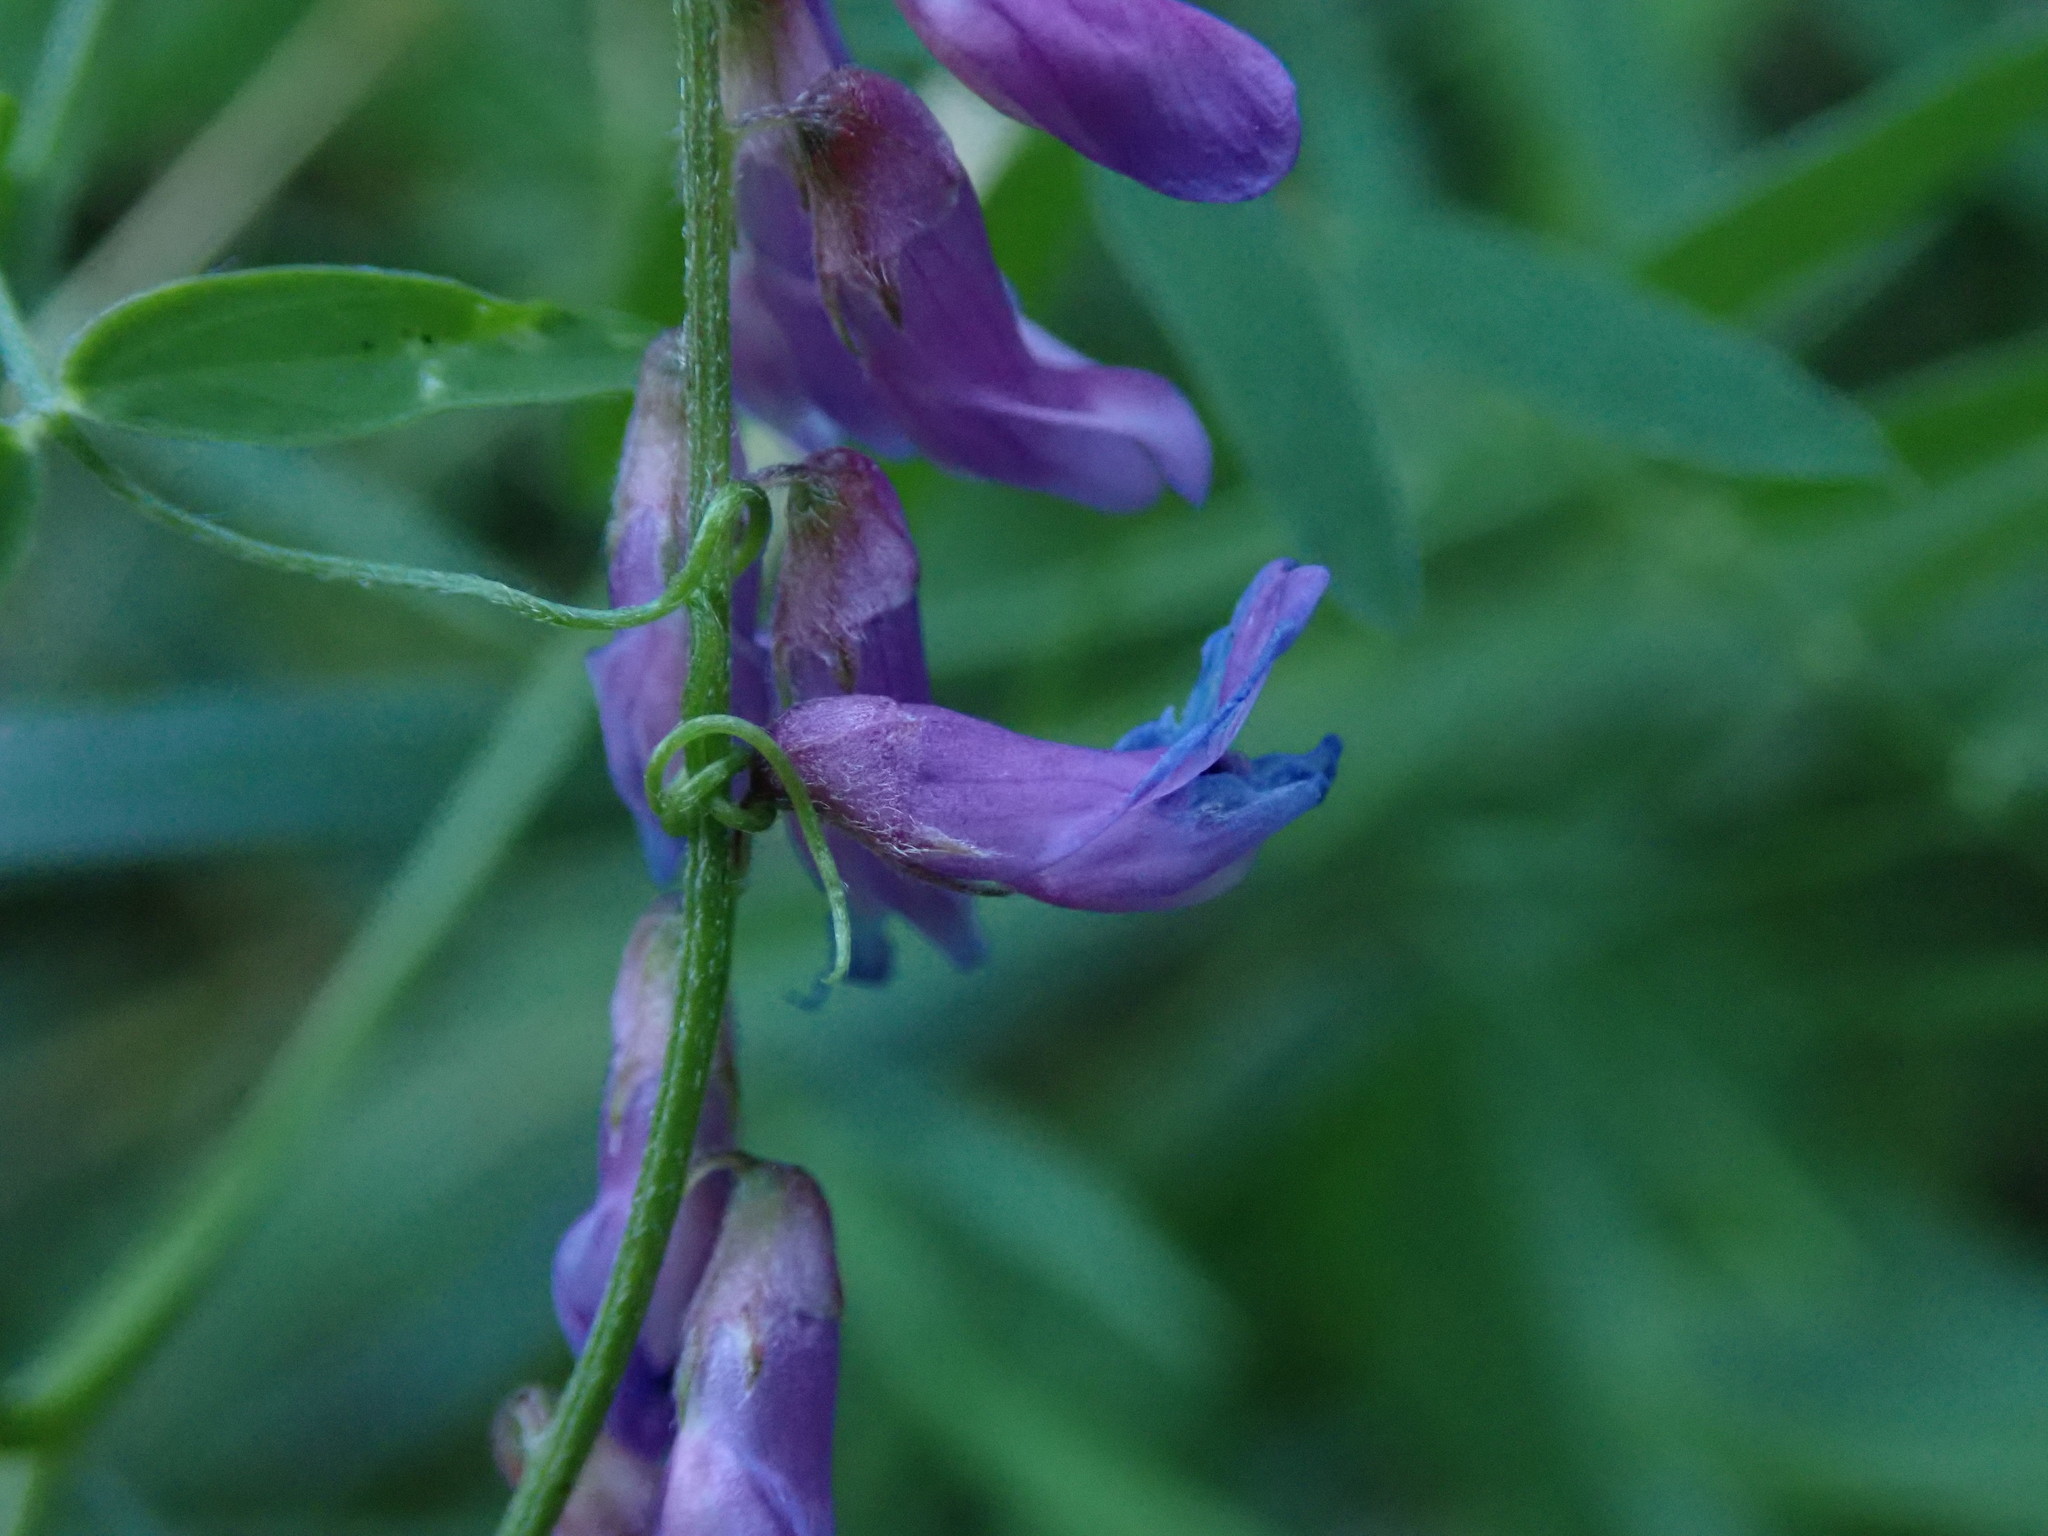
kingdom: Plantae
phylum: Tracheophyta
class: Magnoliopsida
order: Fabales
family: Fabaceae
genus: Vicia
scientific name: Vicia cracca
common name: Bird vetch
